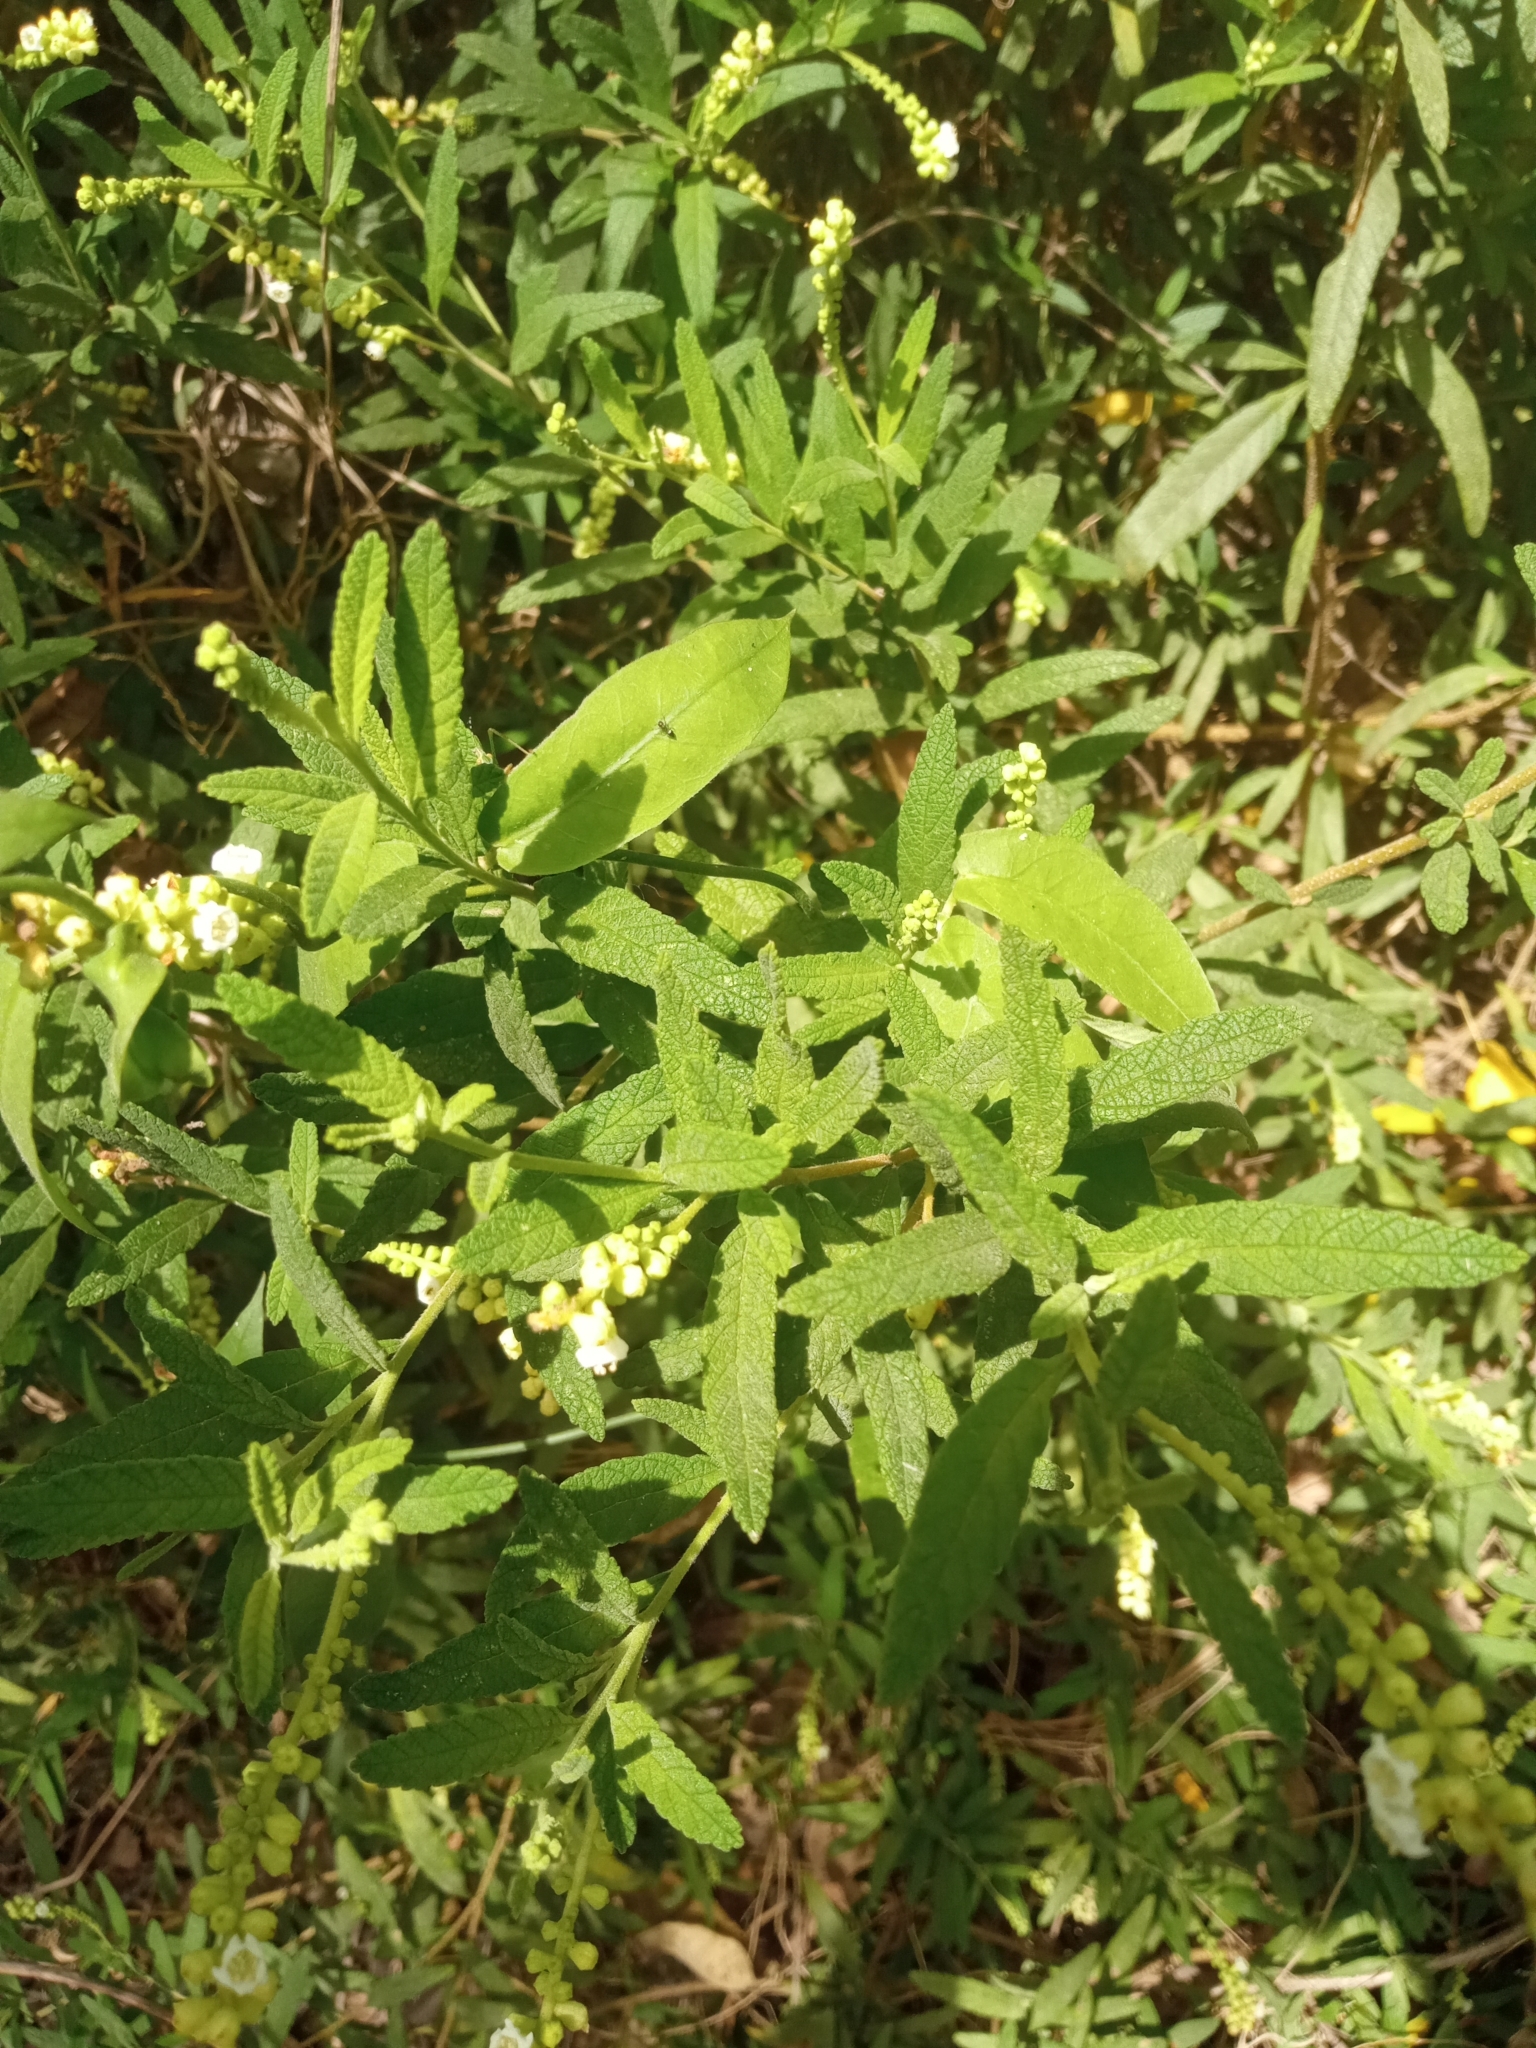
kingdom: Plantae
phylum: Tracheophyta
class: Magnoliopsida
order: Boraginales
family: Cordiaceae
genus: Varronia
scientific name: Varronia curassavica
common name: Black sage
